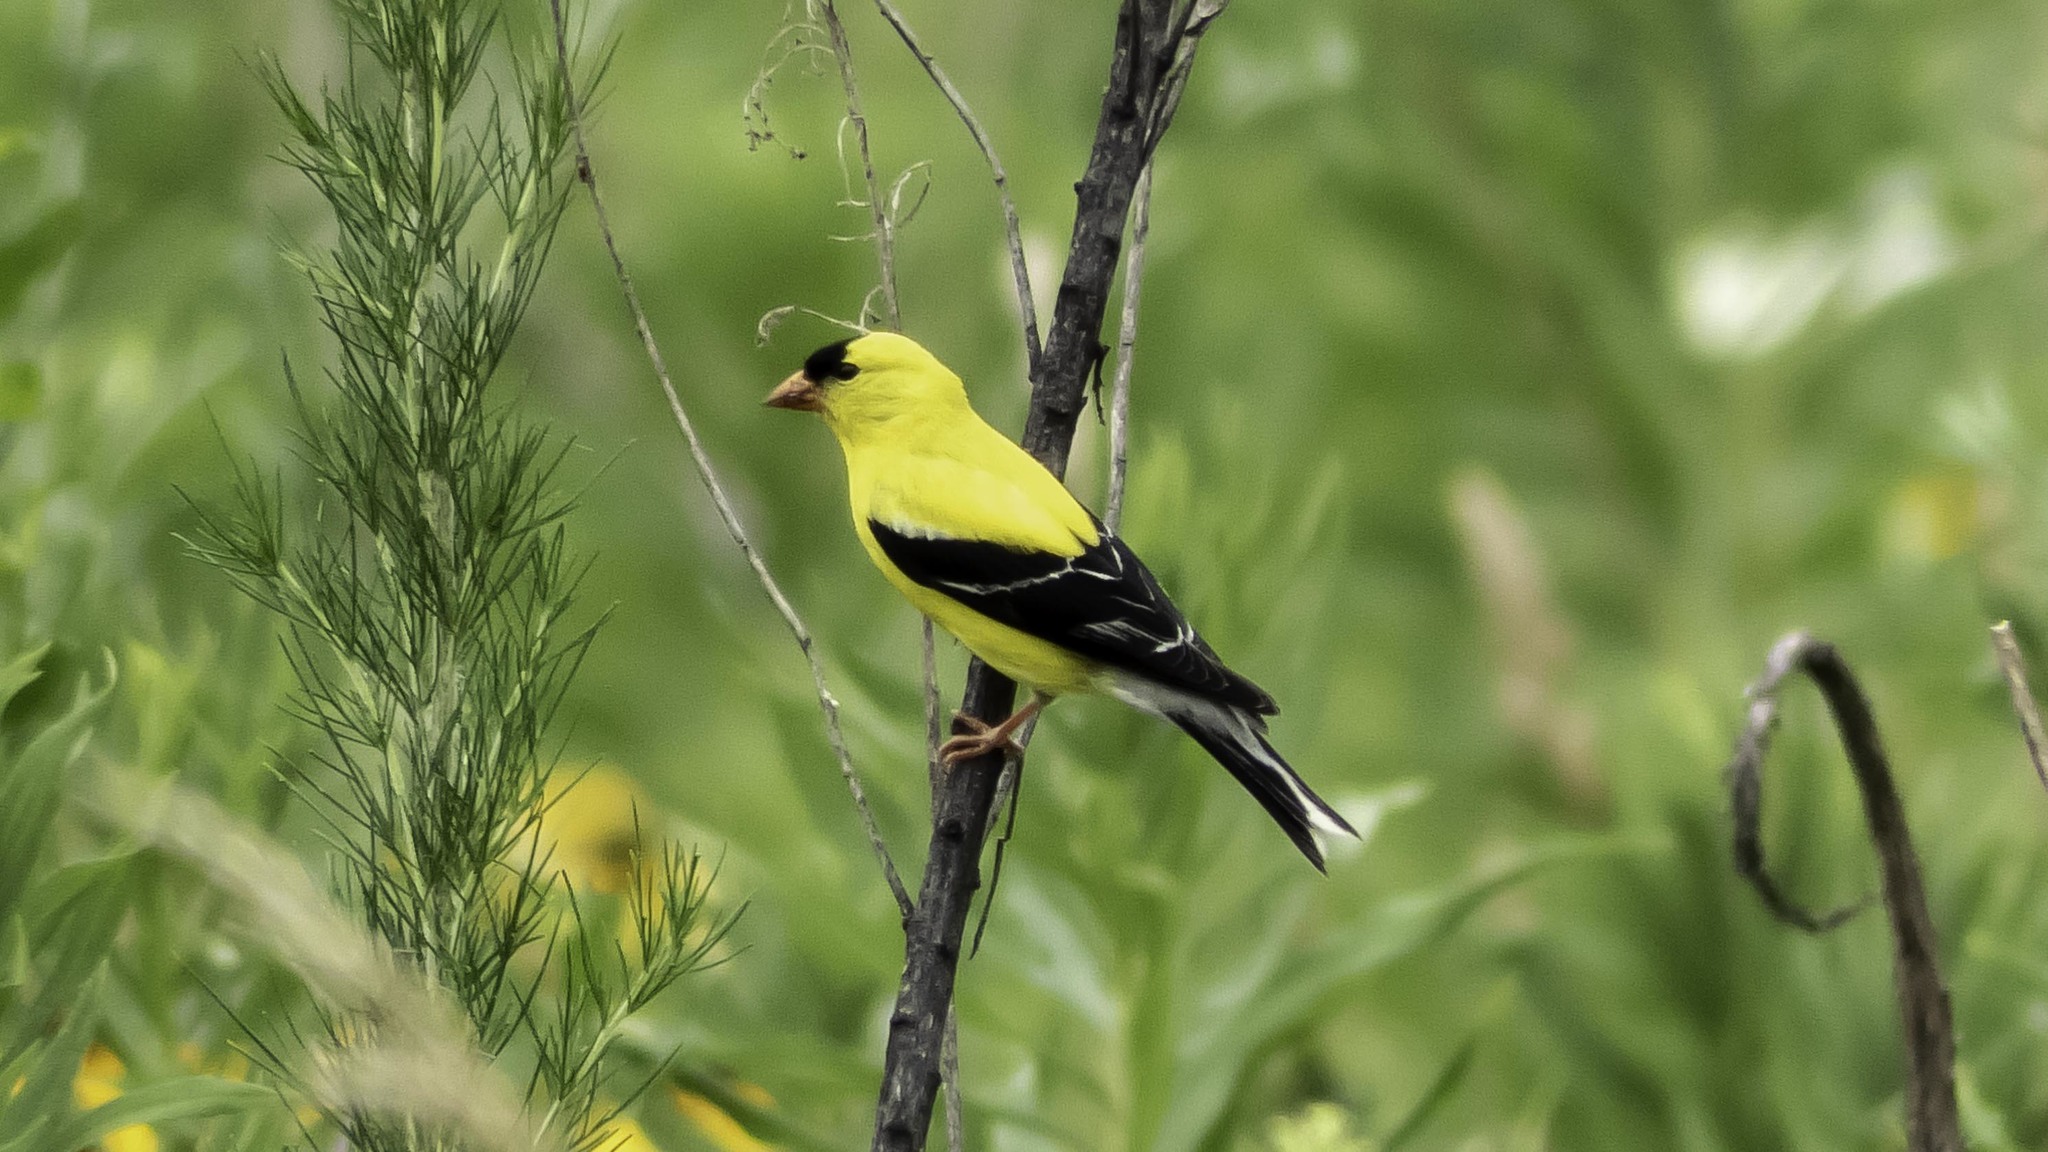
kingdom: Animalia
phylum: Chordata
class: Aves
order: Passeriformes
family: Fringillidae
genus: Spinus
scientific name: Spinus tristis
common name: American goldfinch
